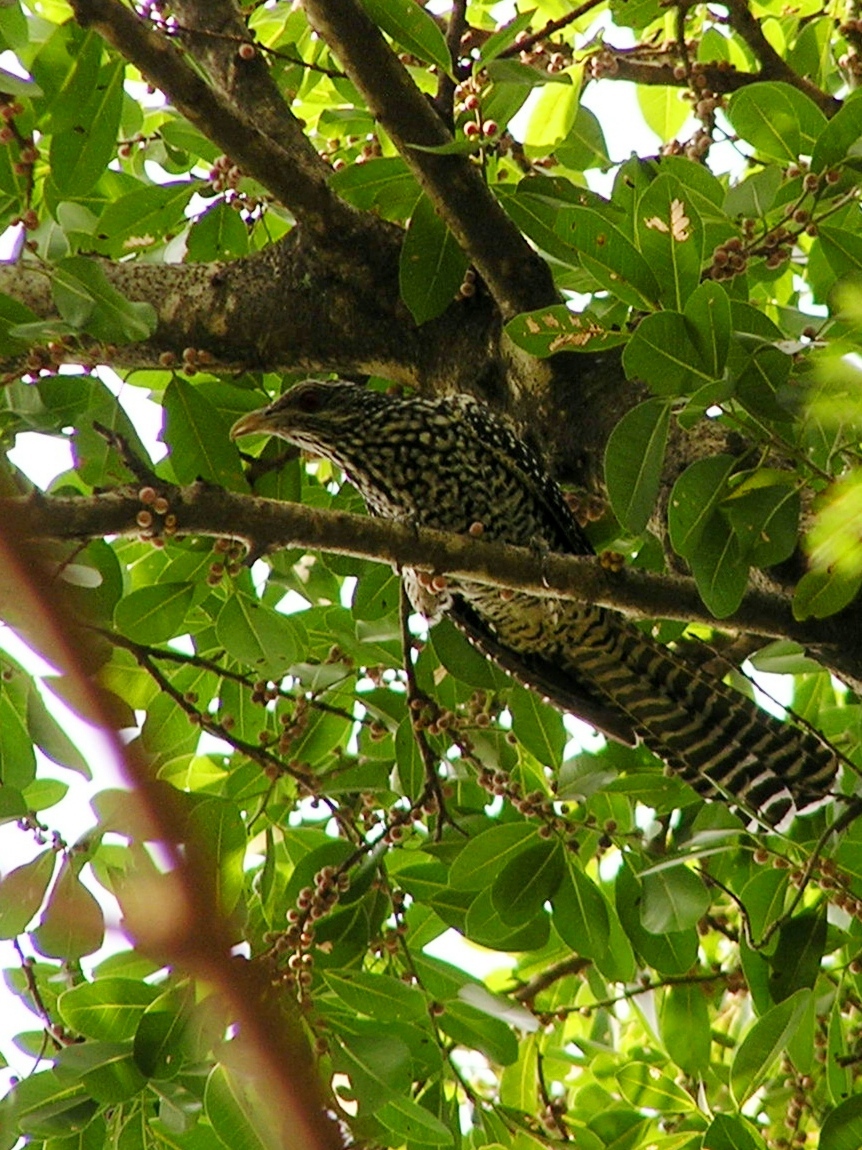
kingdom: Animalia
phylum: Chordata
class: Aves
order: Cuculiformes
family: Cuculidae
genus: Eudynamys
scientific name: Eudynamys scolopaceus
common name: Asian koel
